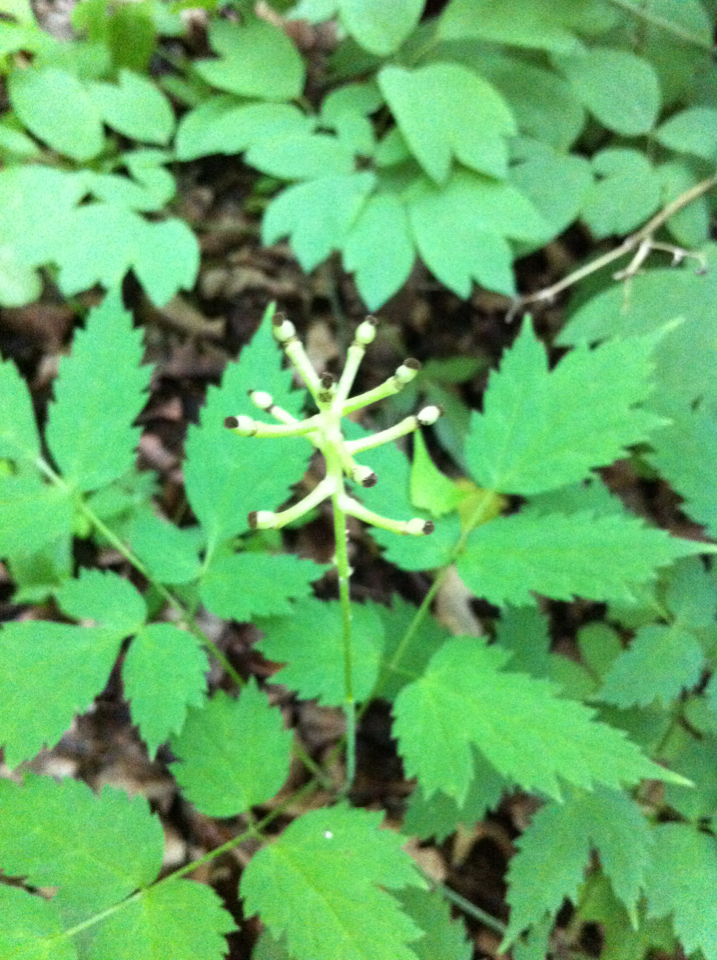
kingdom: Plantae
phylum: Tracheophyta
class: Magnoliopsida
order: Ranunculales
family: Ranunculaceae
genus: Actaea
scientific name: Actaea pachypoda
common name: Doll's-eyes
